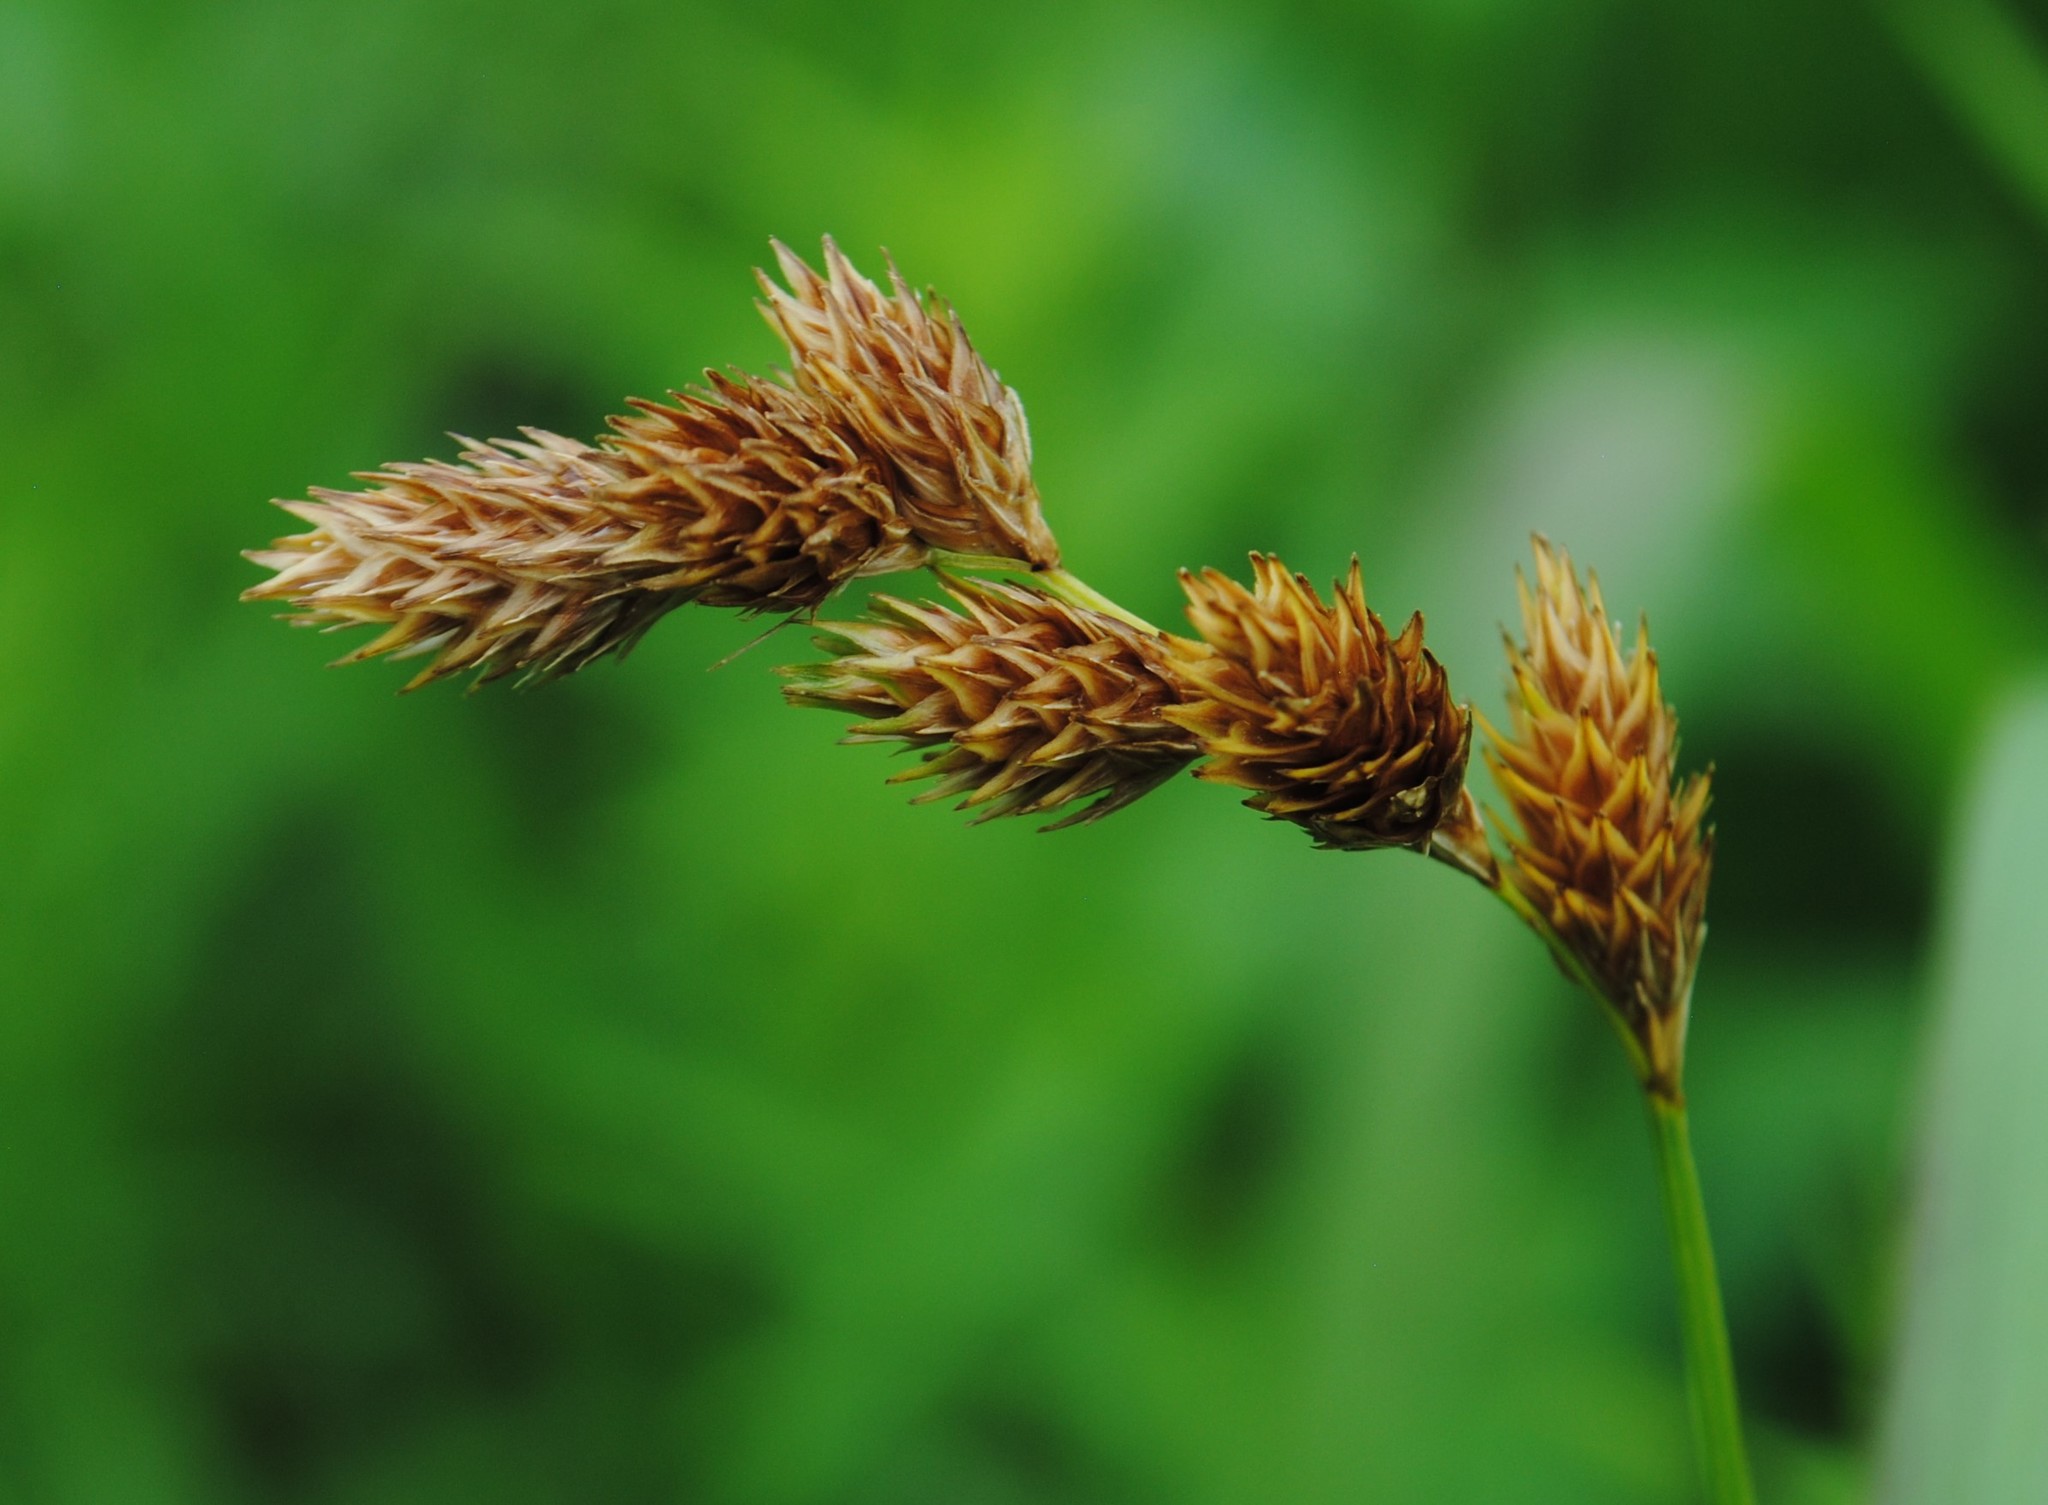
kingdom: Plantae
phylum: Tracheophyta
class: Liliopsida
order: Poales
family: Cyperaceae
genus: Carex
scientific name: Carex hormathodes
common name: Marsh straw sedge
